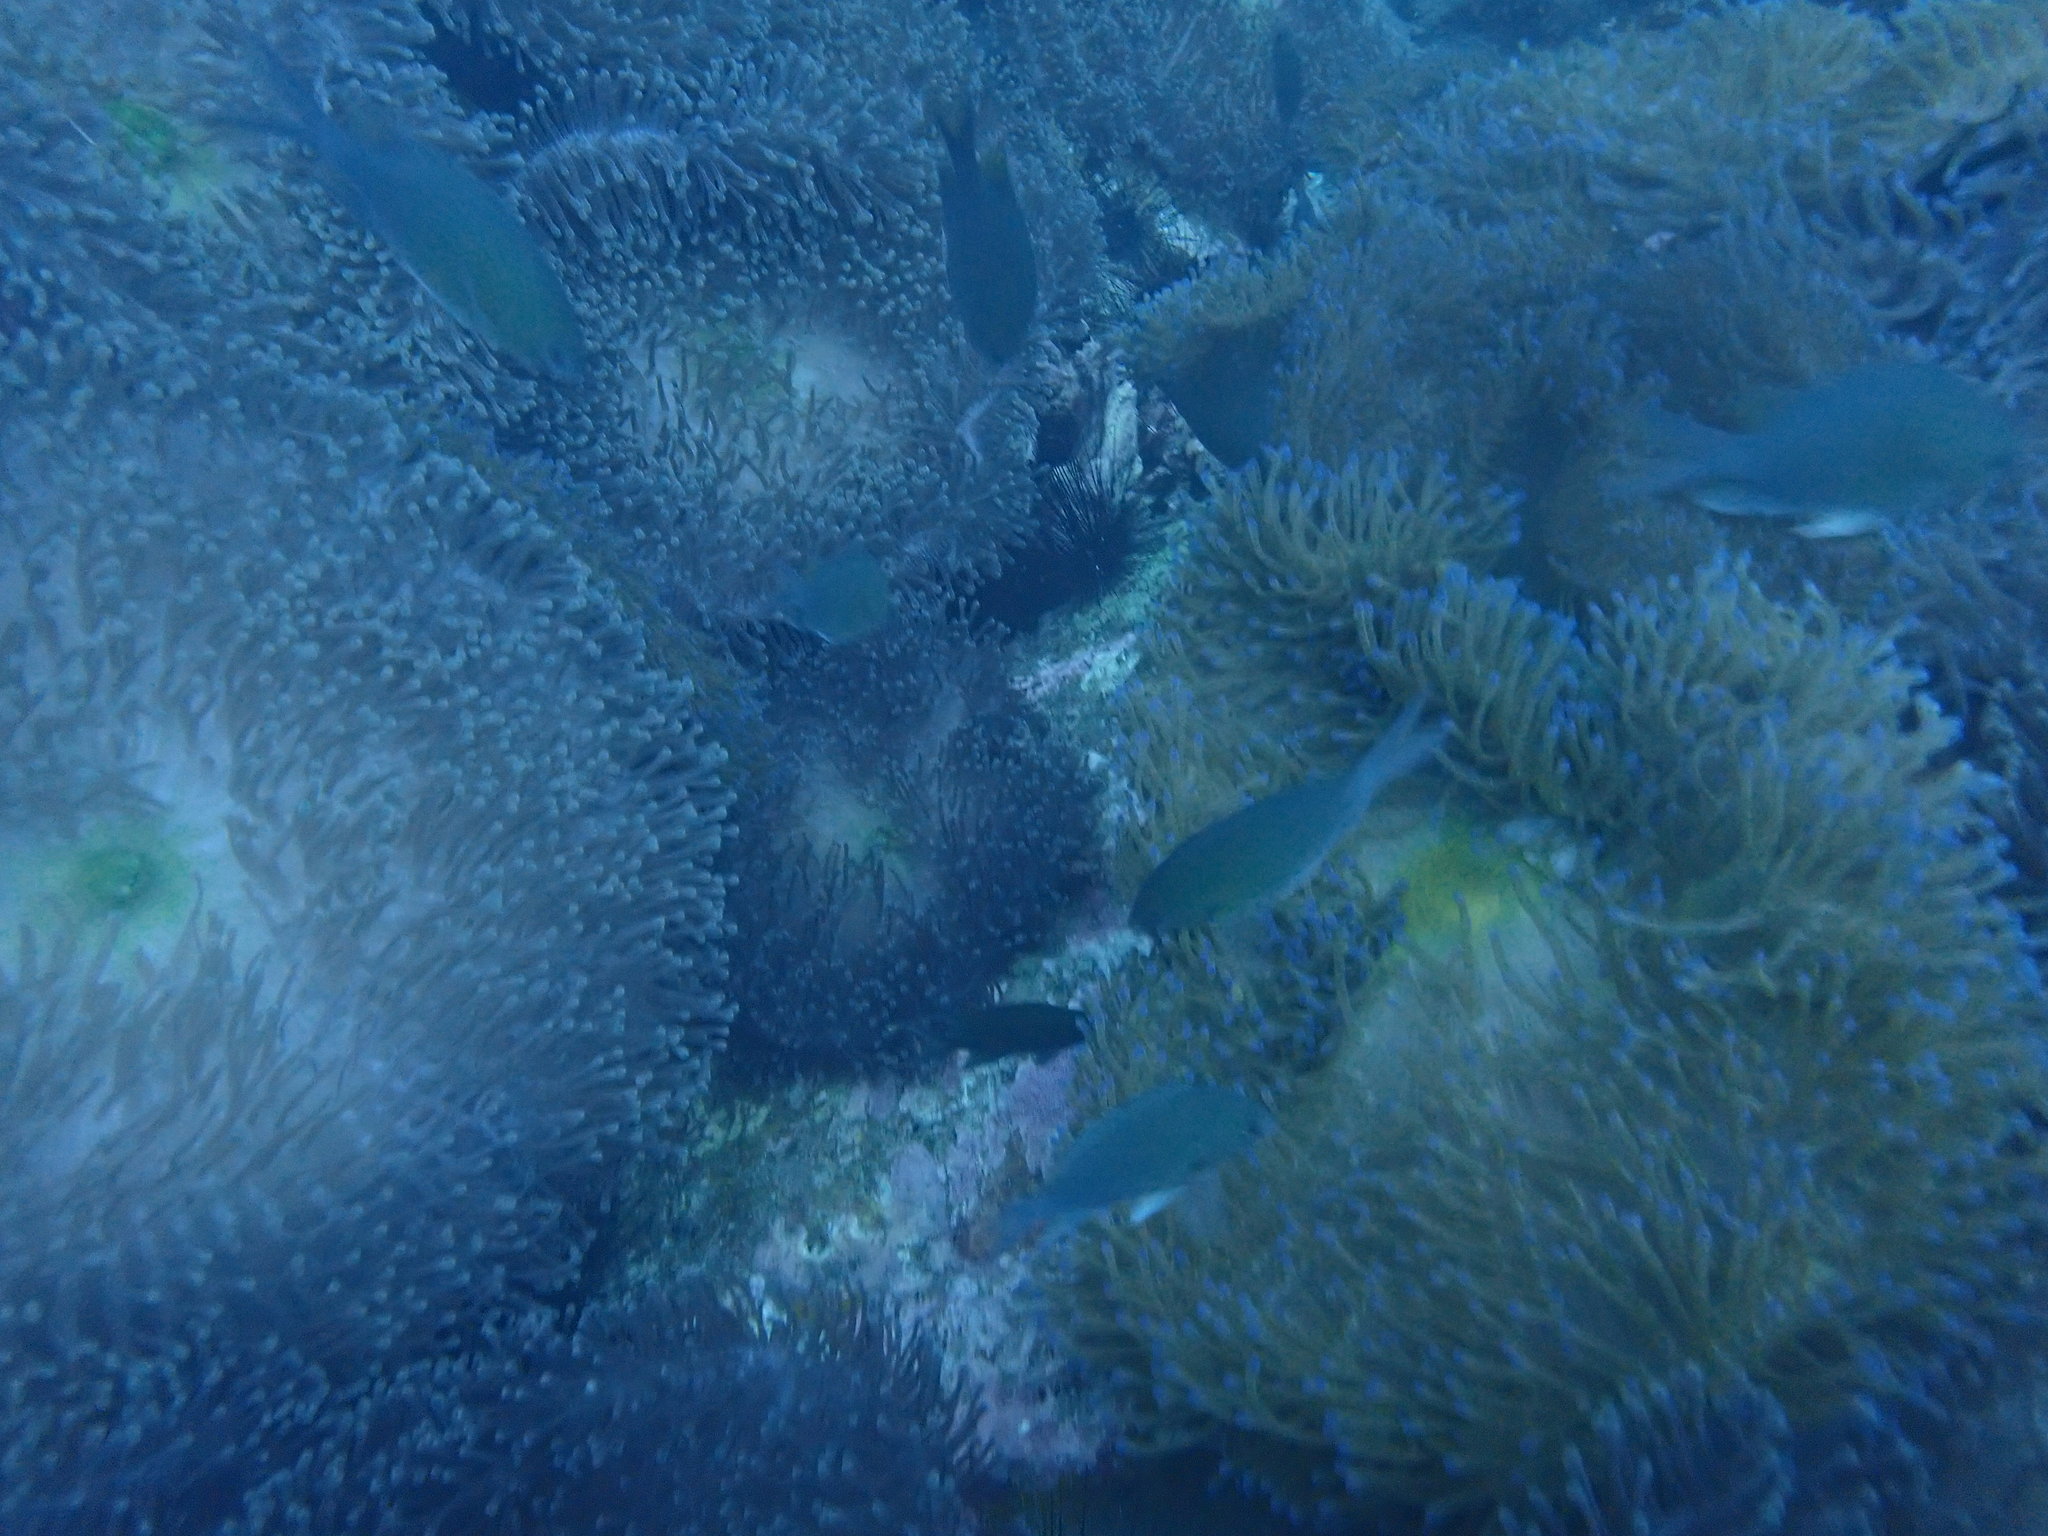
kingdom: Animalia
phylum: Chordata
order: Perciformes
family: Pomacentridae
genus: Chromis
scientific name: Chromis cinerascens
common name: Green chromis
